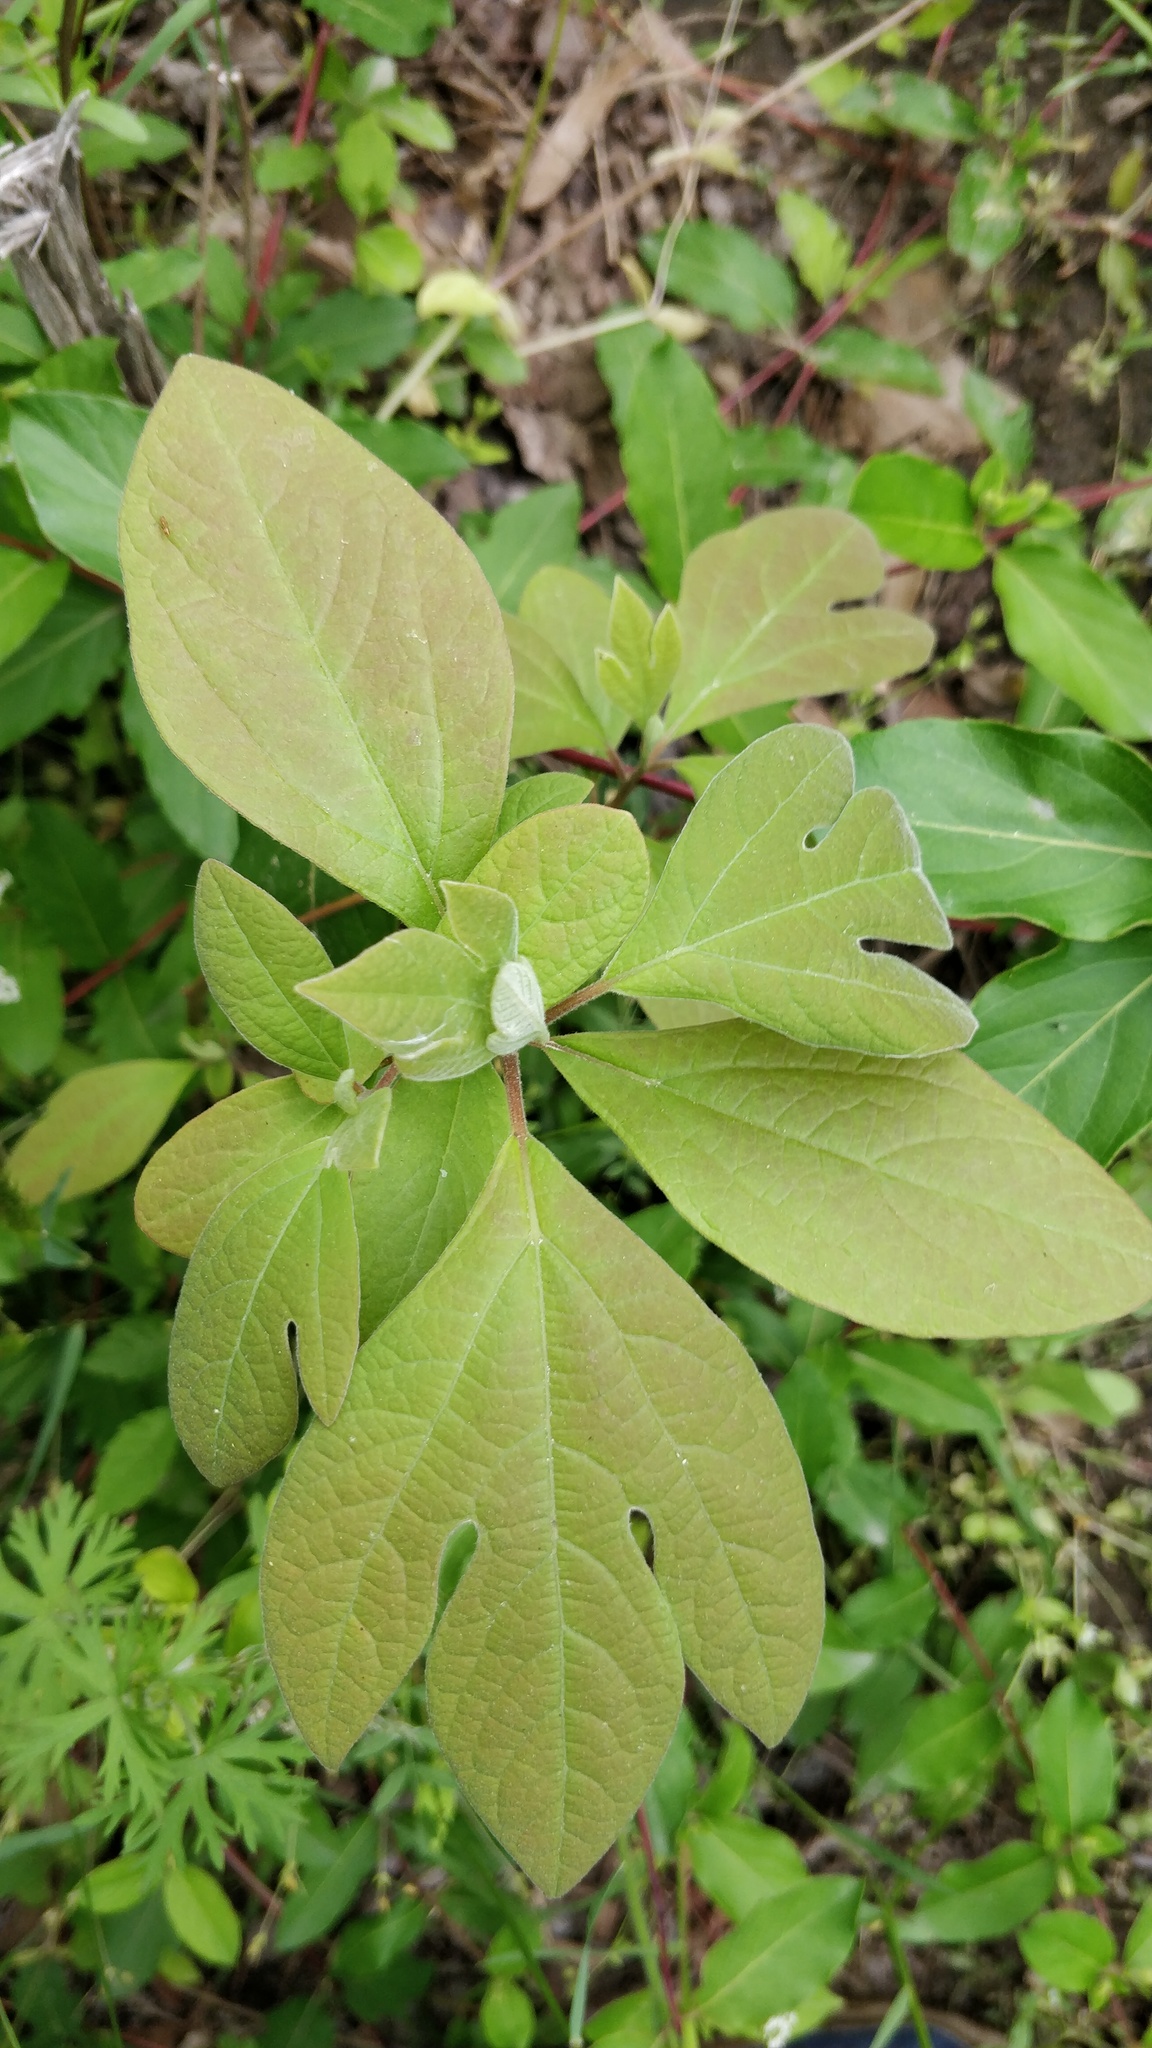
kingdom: Plantae
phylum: Tracheophyta
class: Magnoliopsida
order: Laurales
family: Lauraceae
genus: Sassafras
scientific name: Sassafras albidum
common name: Sassafras
